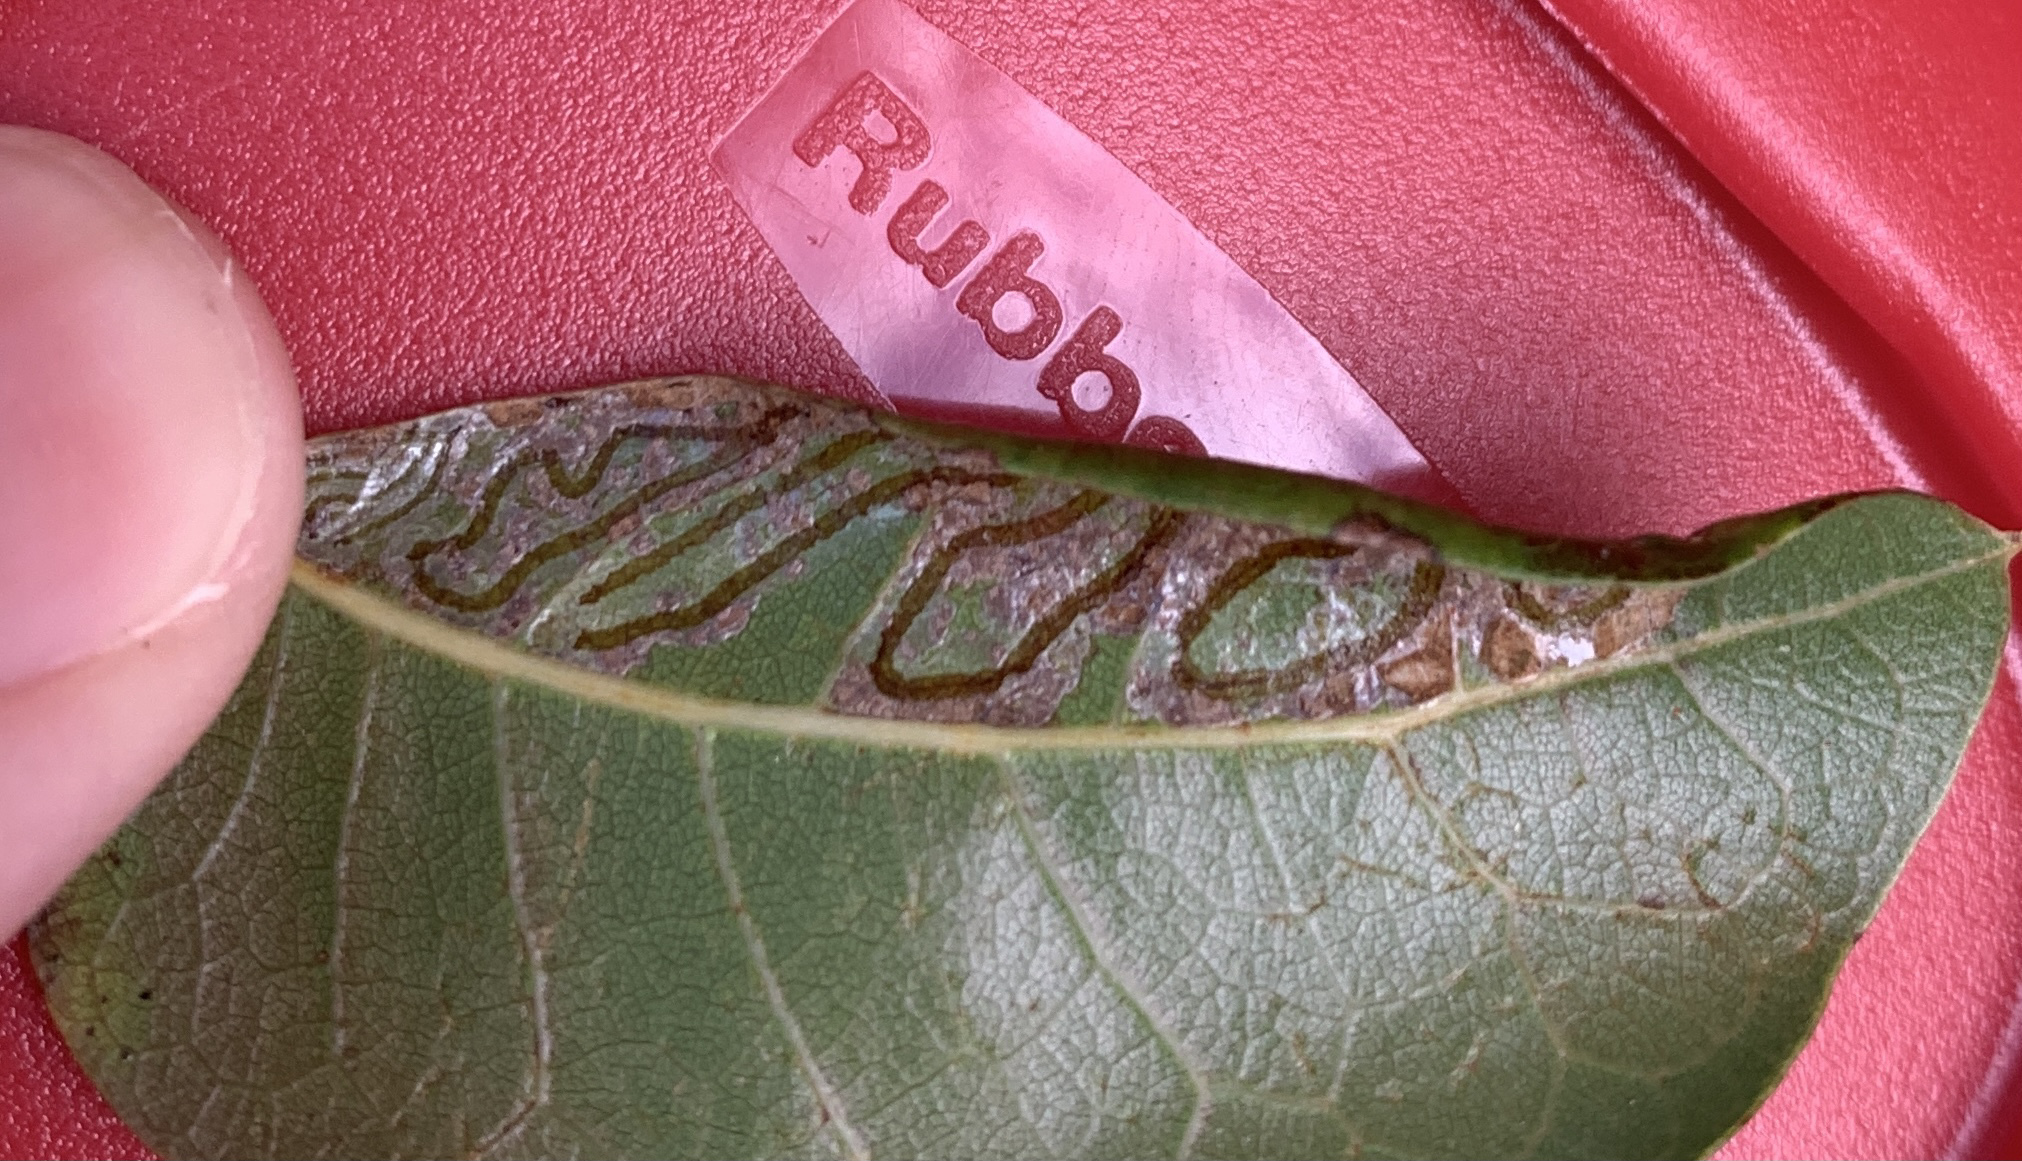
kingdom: Animalia
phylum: Arthropoda
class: Insecta
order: Lepidoptera
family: Gracillariidae
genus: Phyllocnistis
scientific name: Phyllocnistis meliacella
